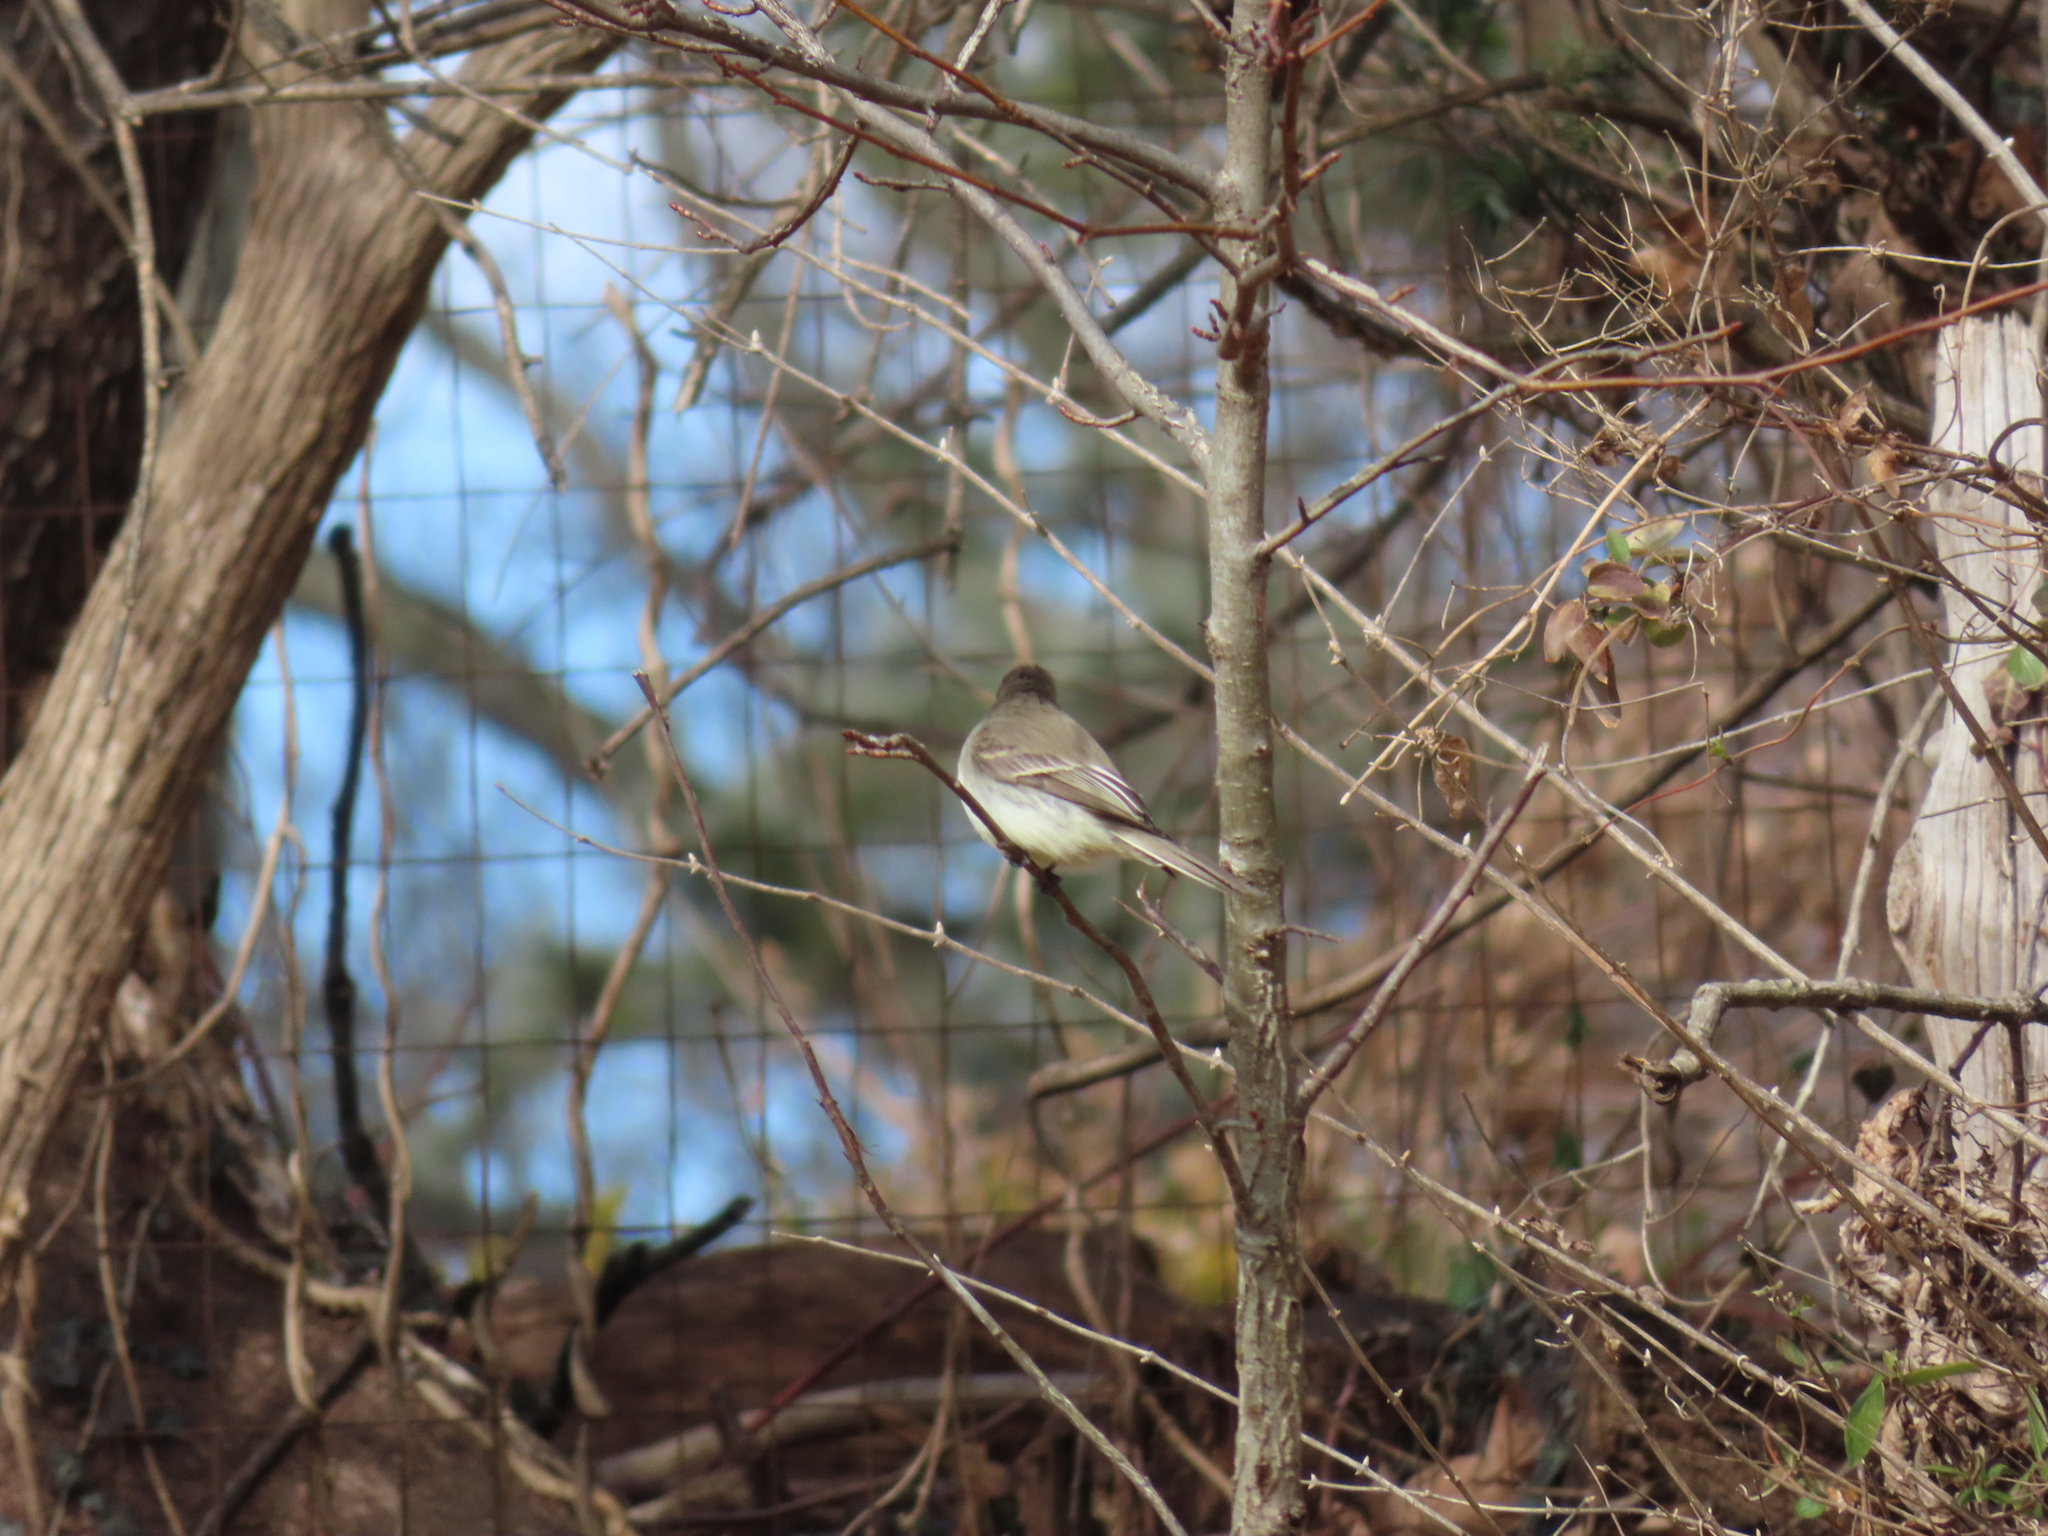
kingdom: Animalia
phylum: Chordata
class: Aves
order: Passeriformes
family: Tyrannidae
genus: Sayornis
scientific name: Sayornis phoebe
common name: Eastern phoebe
